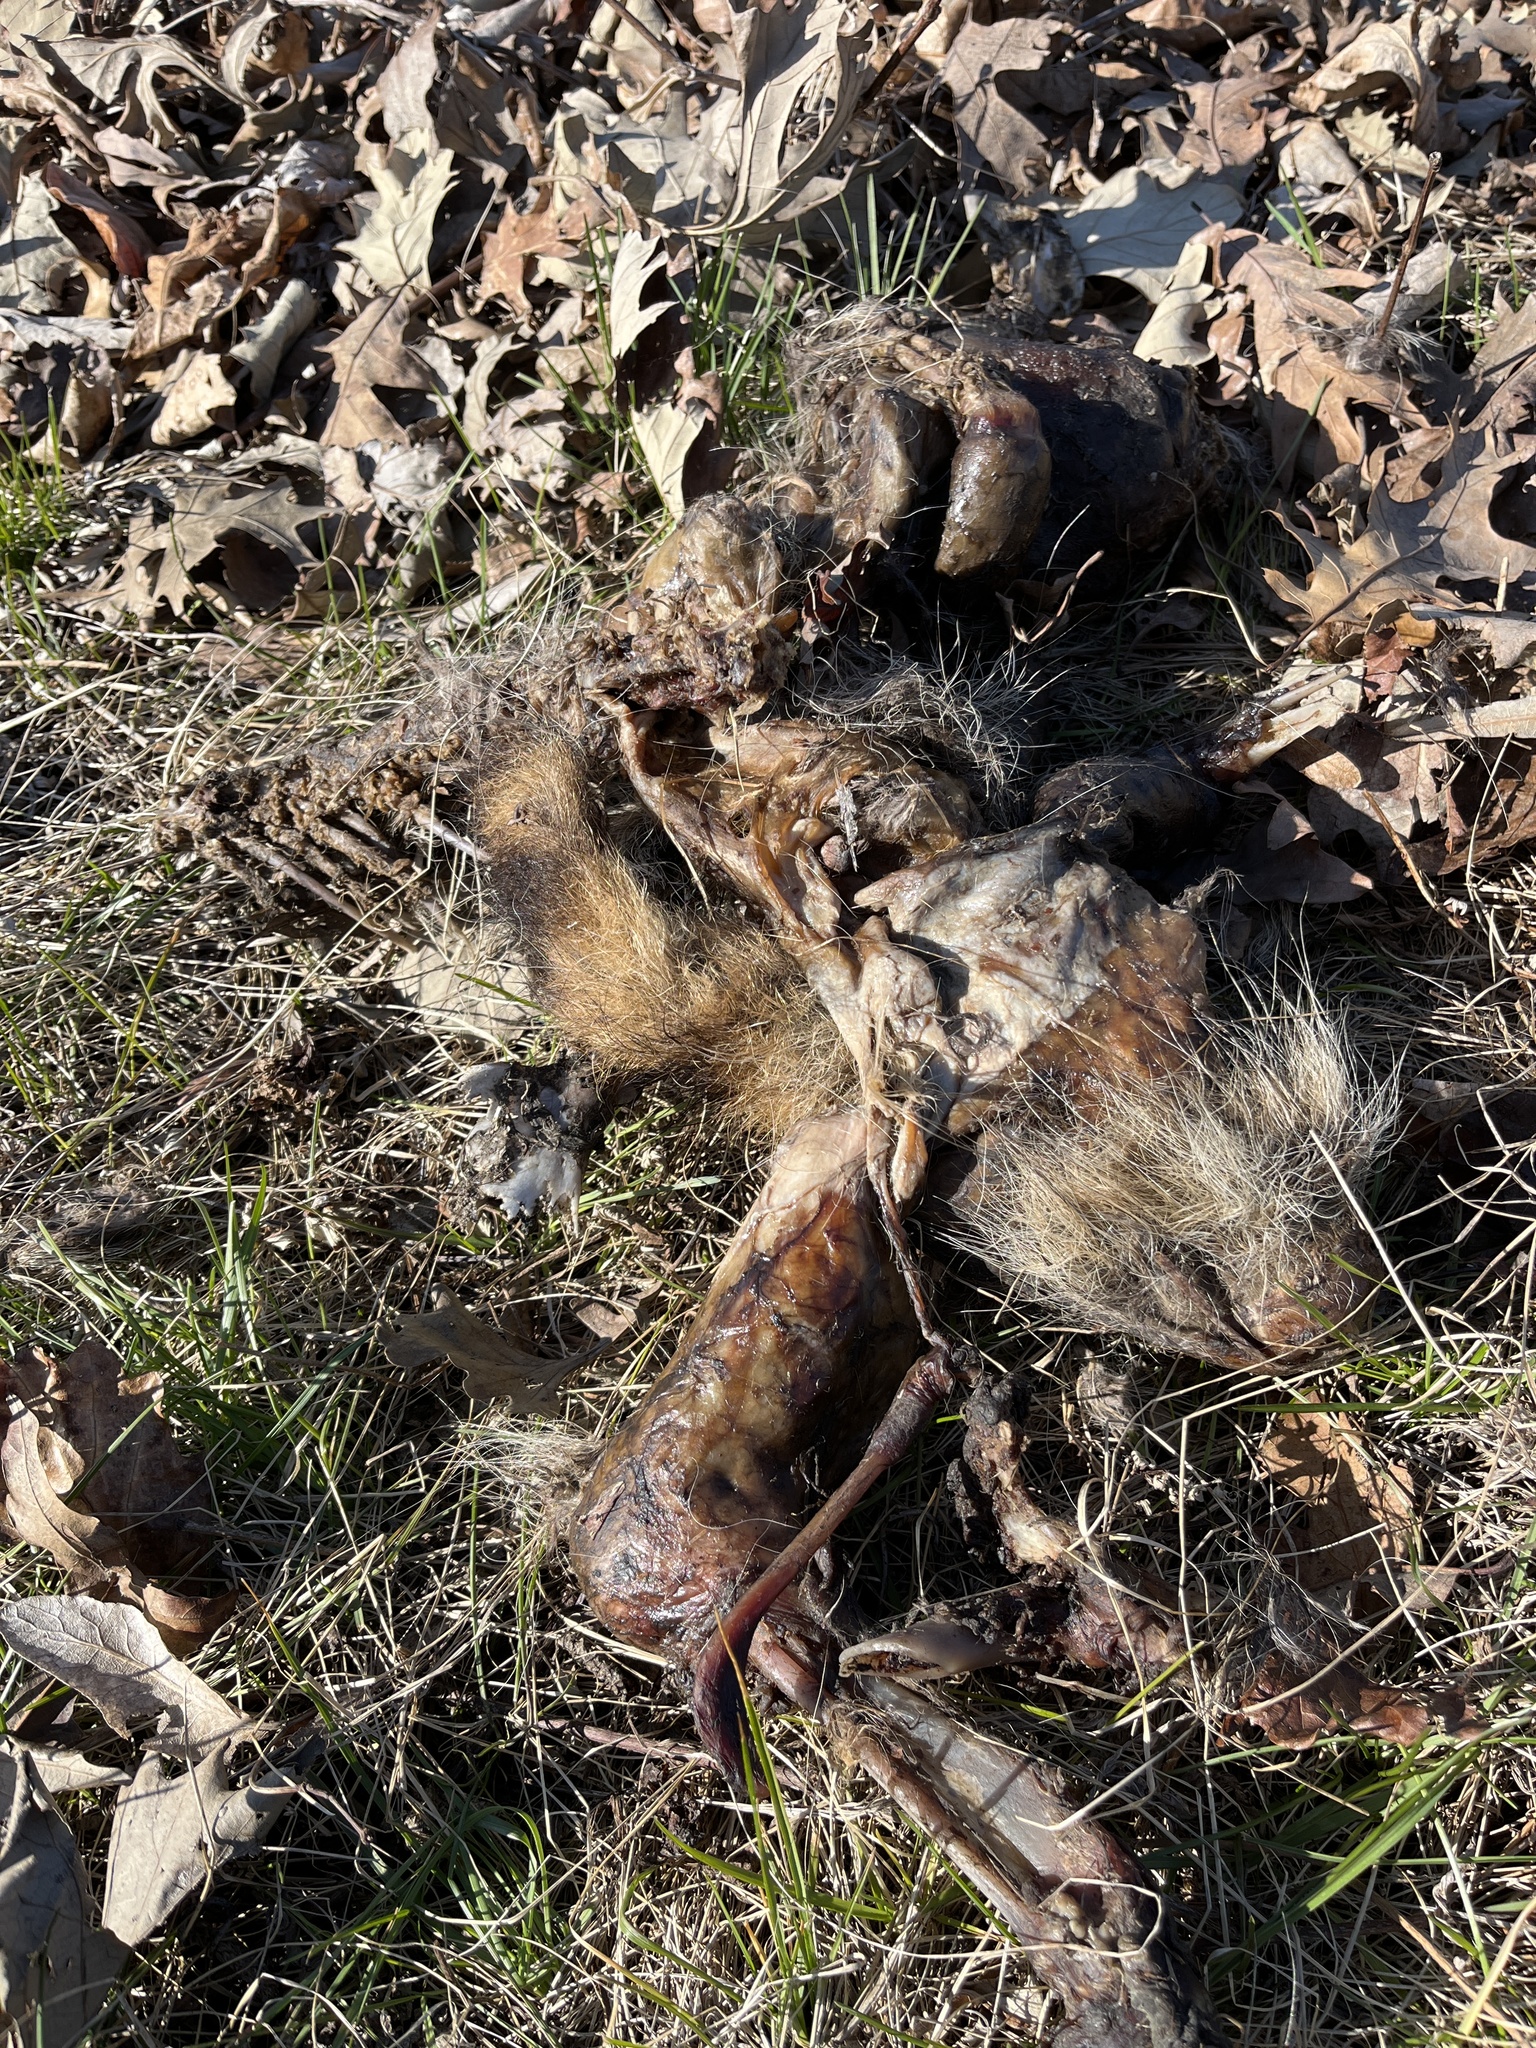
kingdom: Animalia
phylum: Chordata
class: Mammalia
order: Carnivora
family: Procyonidae
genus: Procyon
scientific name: Procyon lotor
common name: Raccoon
